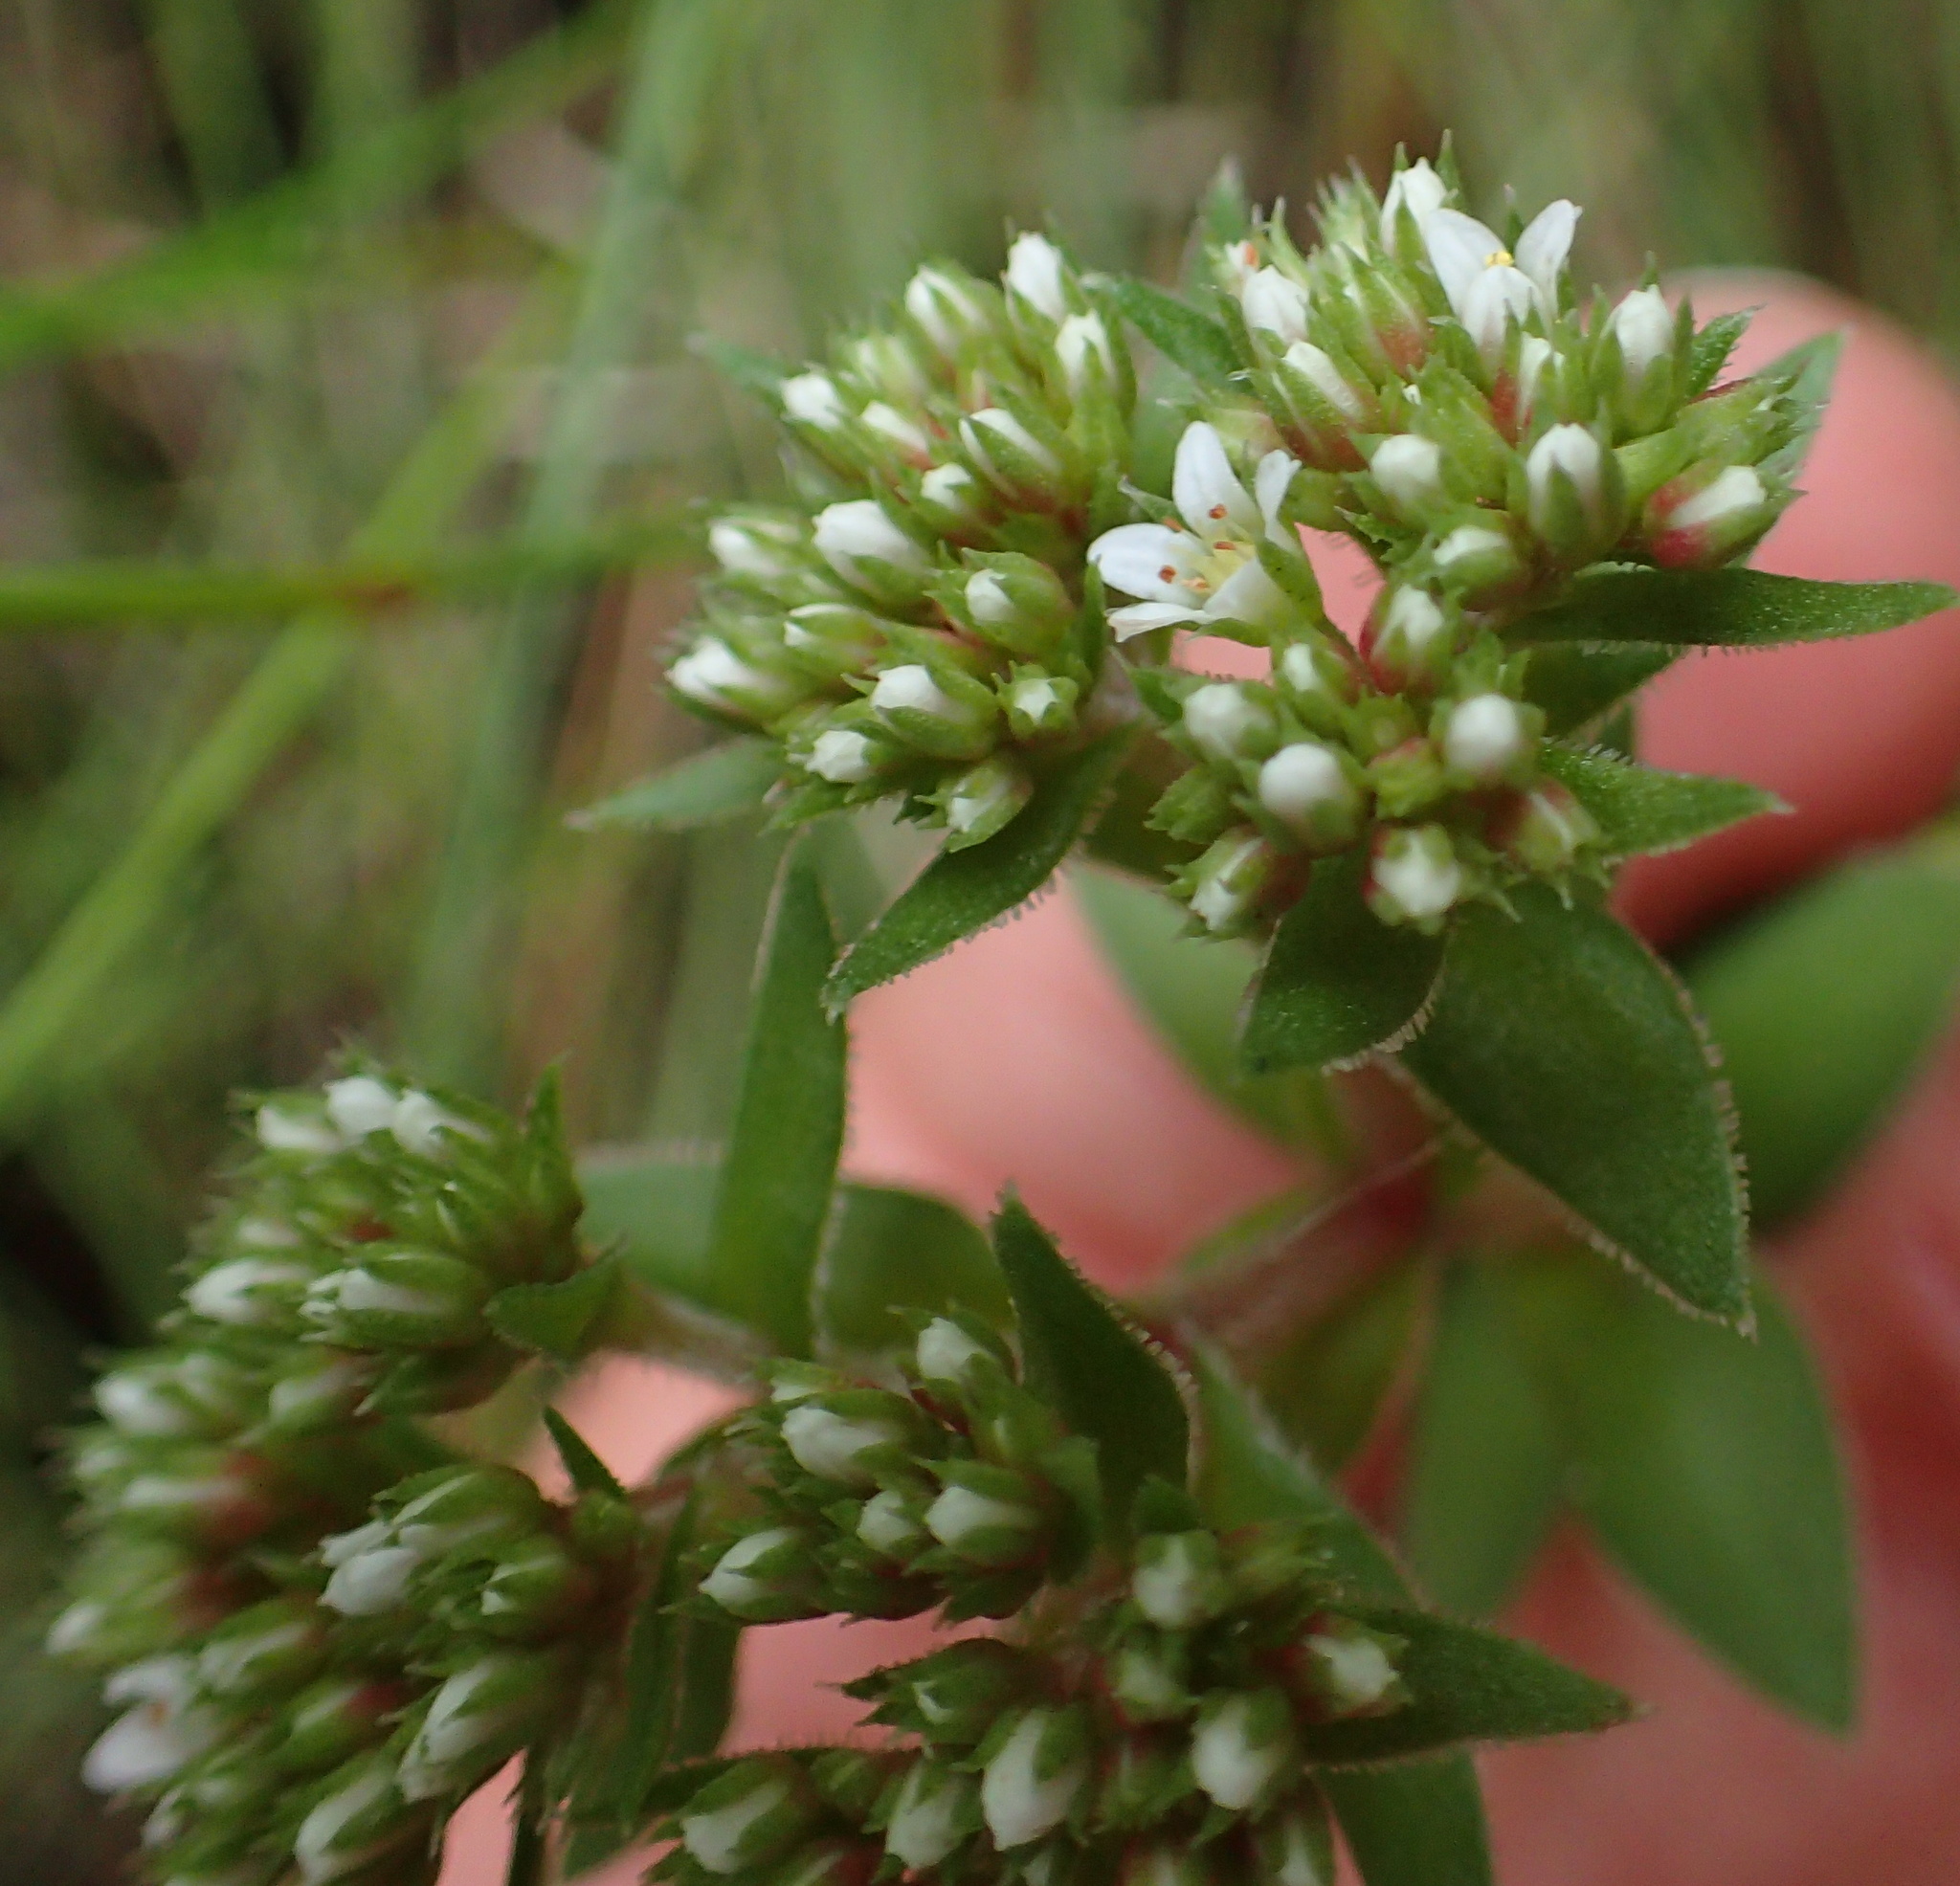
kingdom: Plantae
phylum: Tracheophyta
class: Magnoliopsida
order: Saxifragales
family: Crassulaceae
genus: Crassula
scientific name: Crassula obovata
